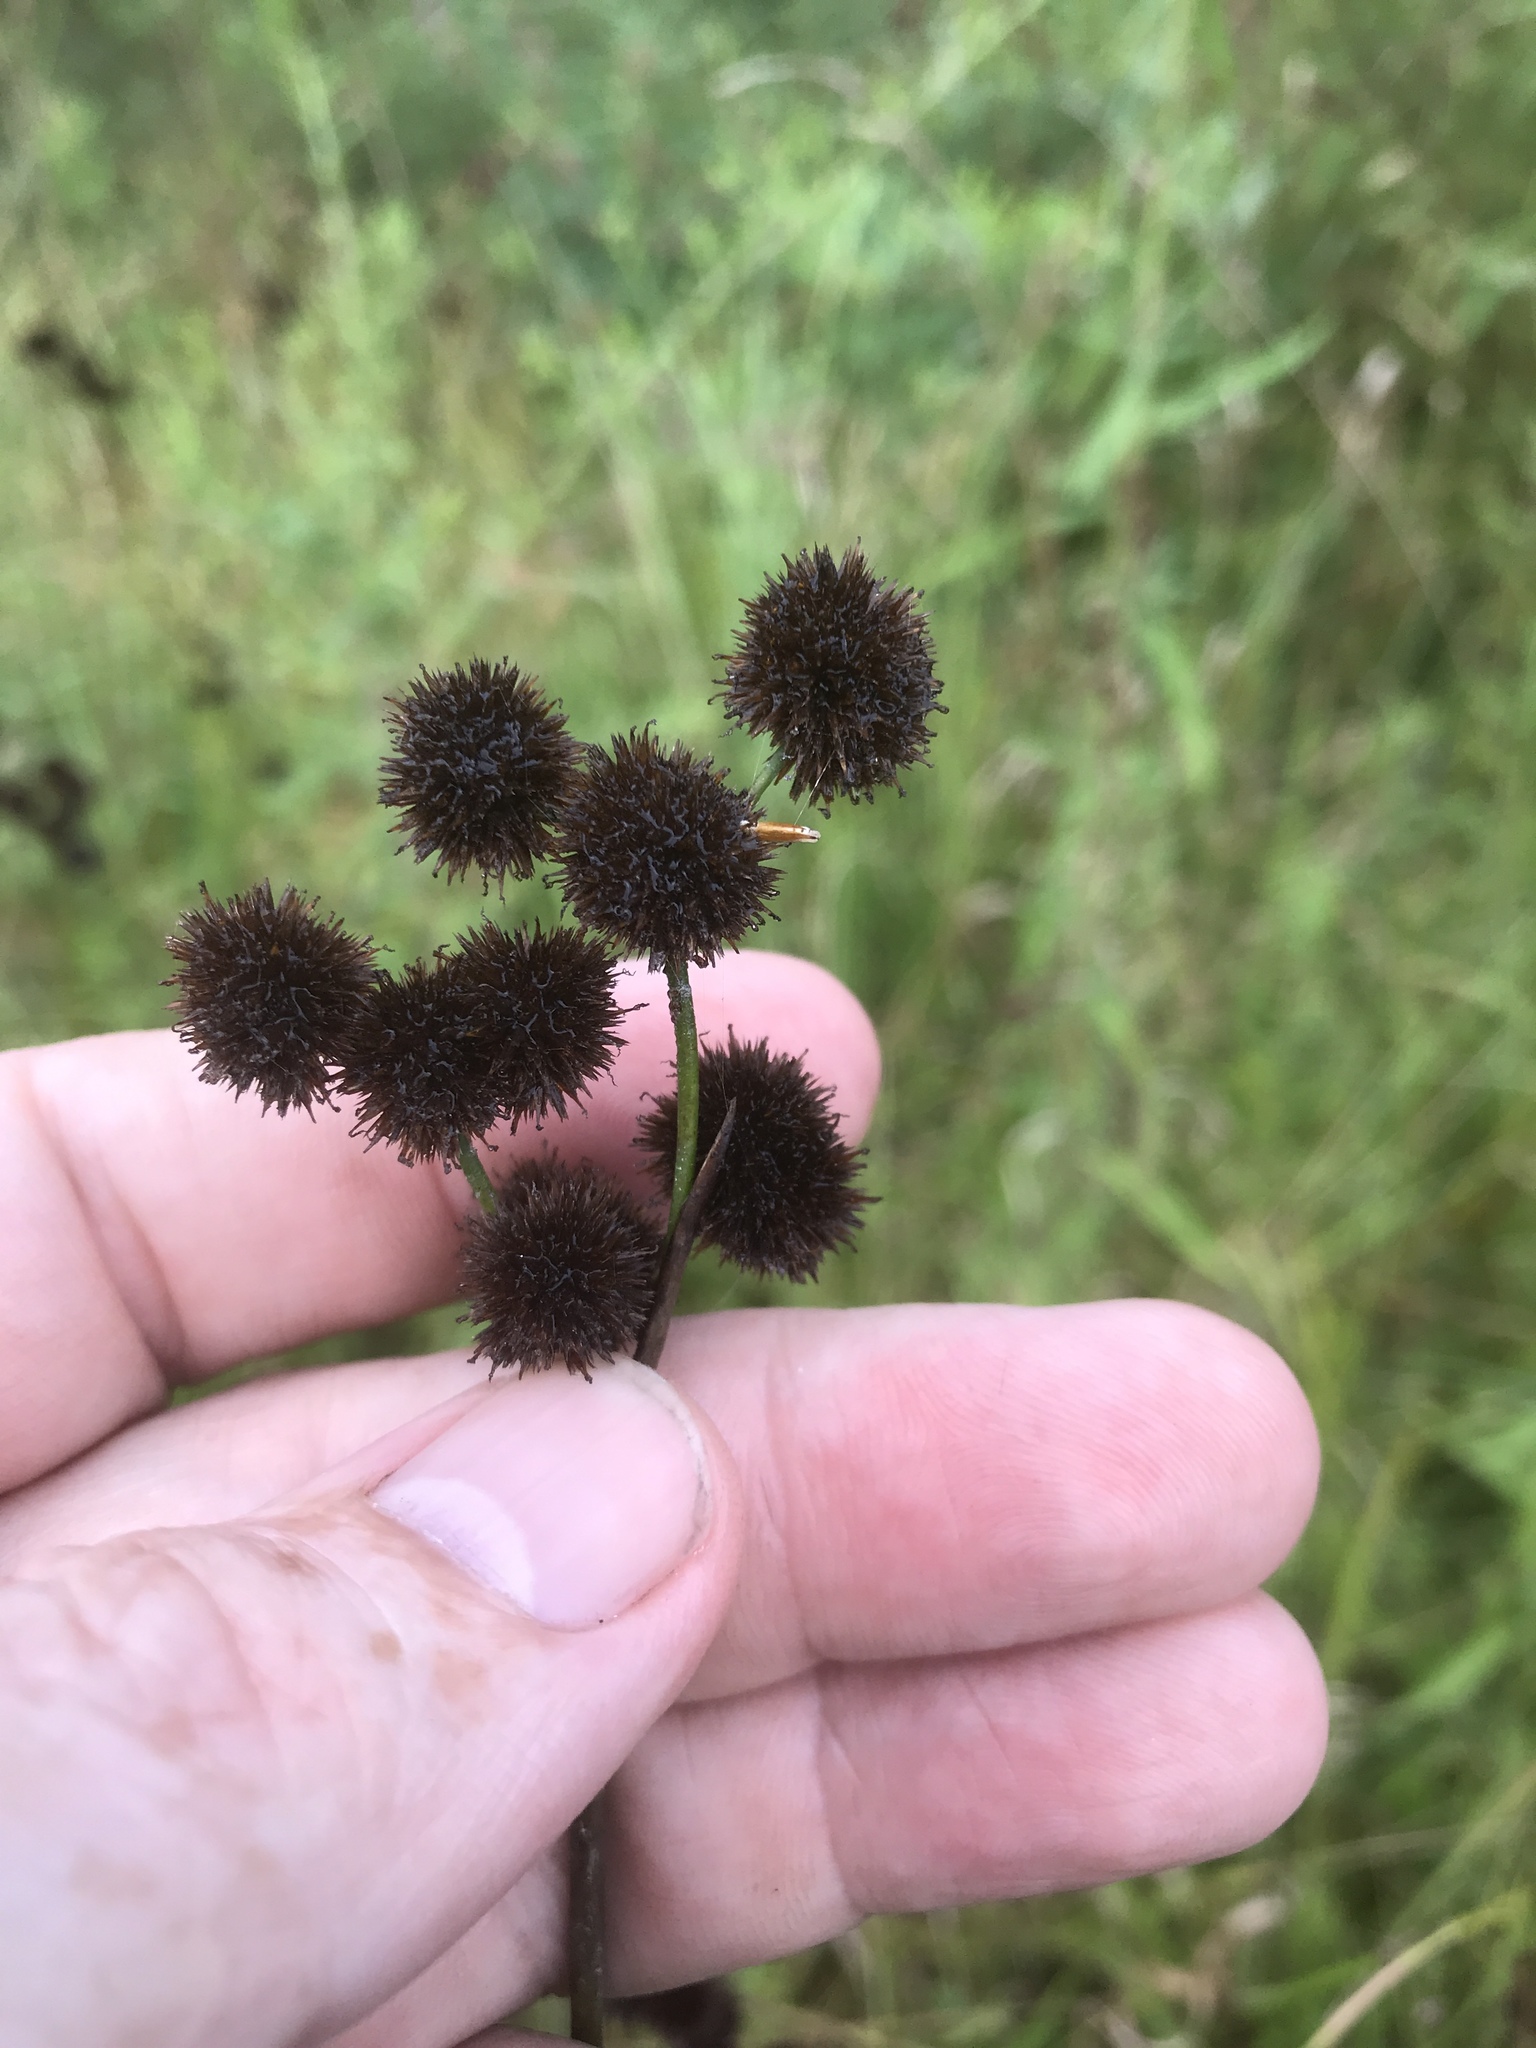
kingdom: Plantae
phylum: Tracheophyta
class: Liliopsida
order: Poales
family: Juncaceae
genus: Juncus
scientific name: Juncus megacephalus
